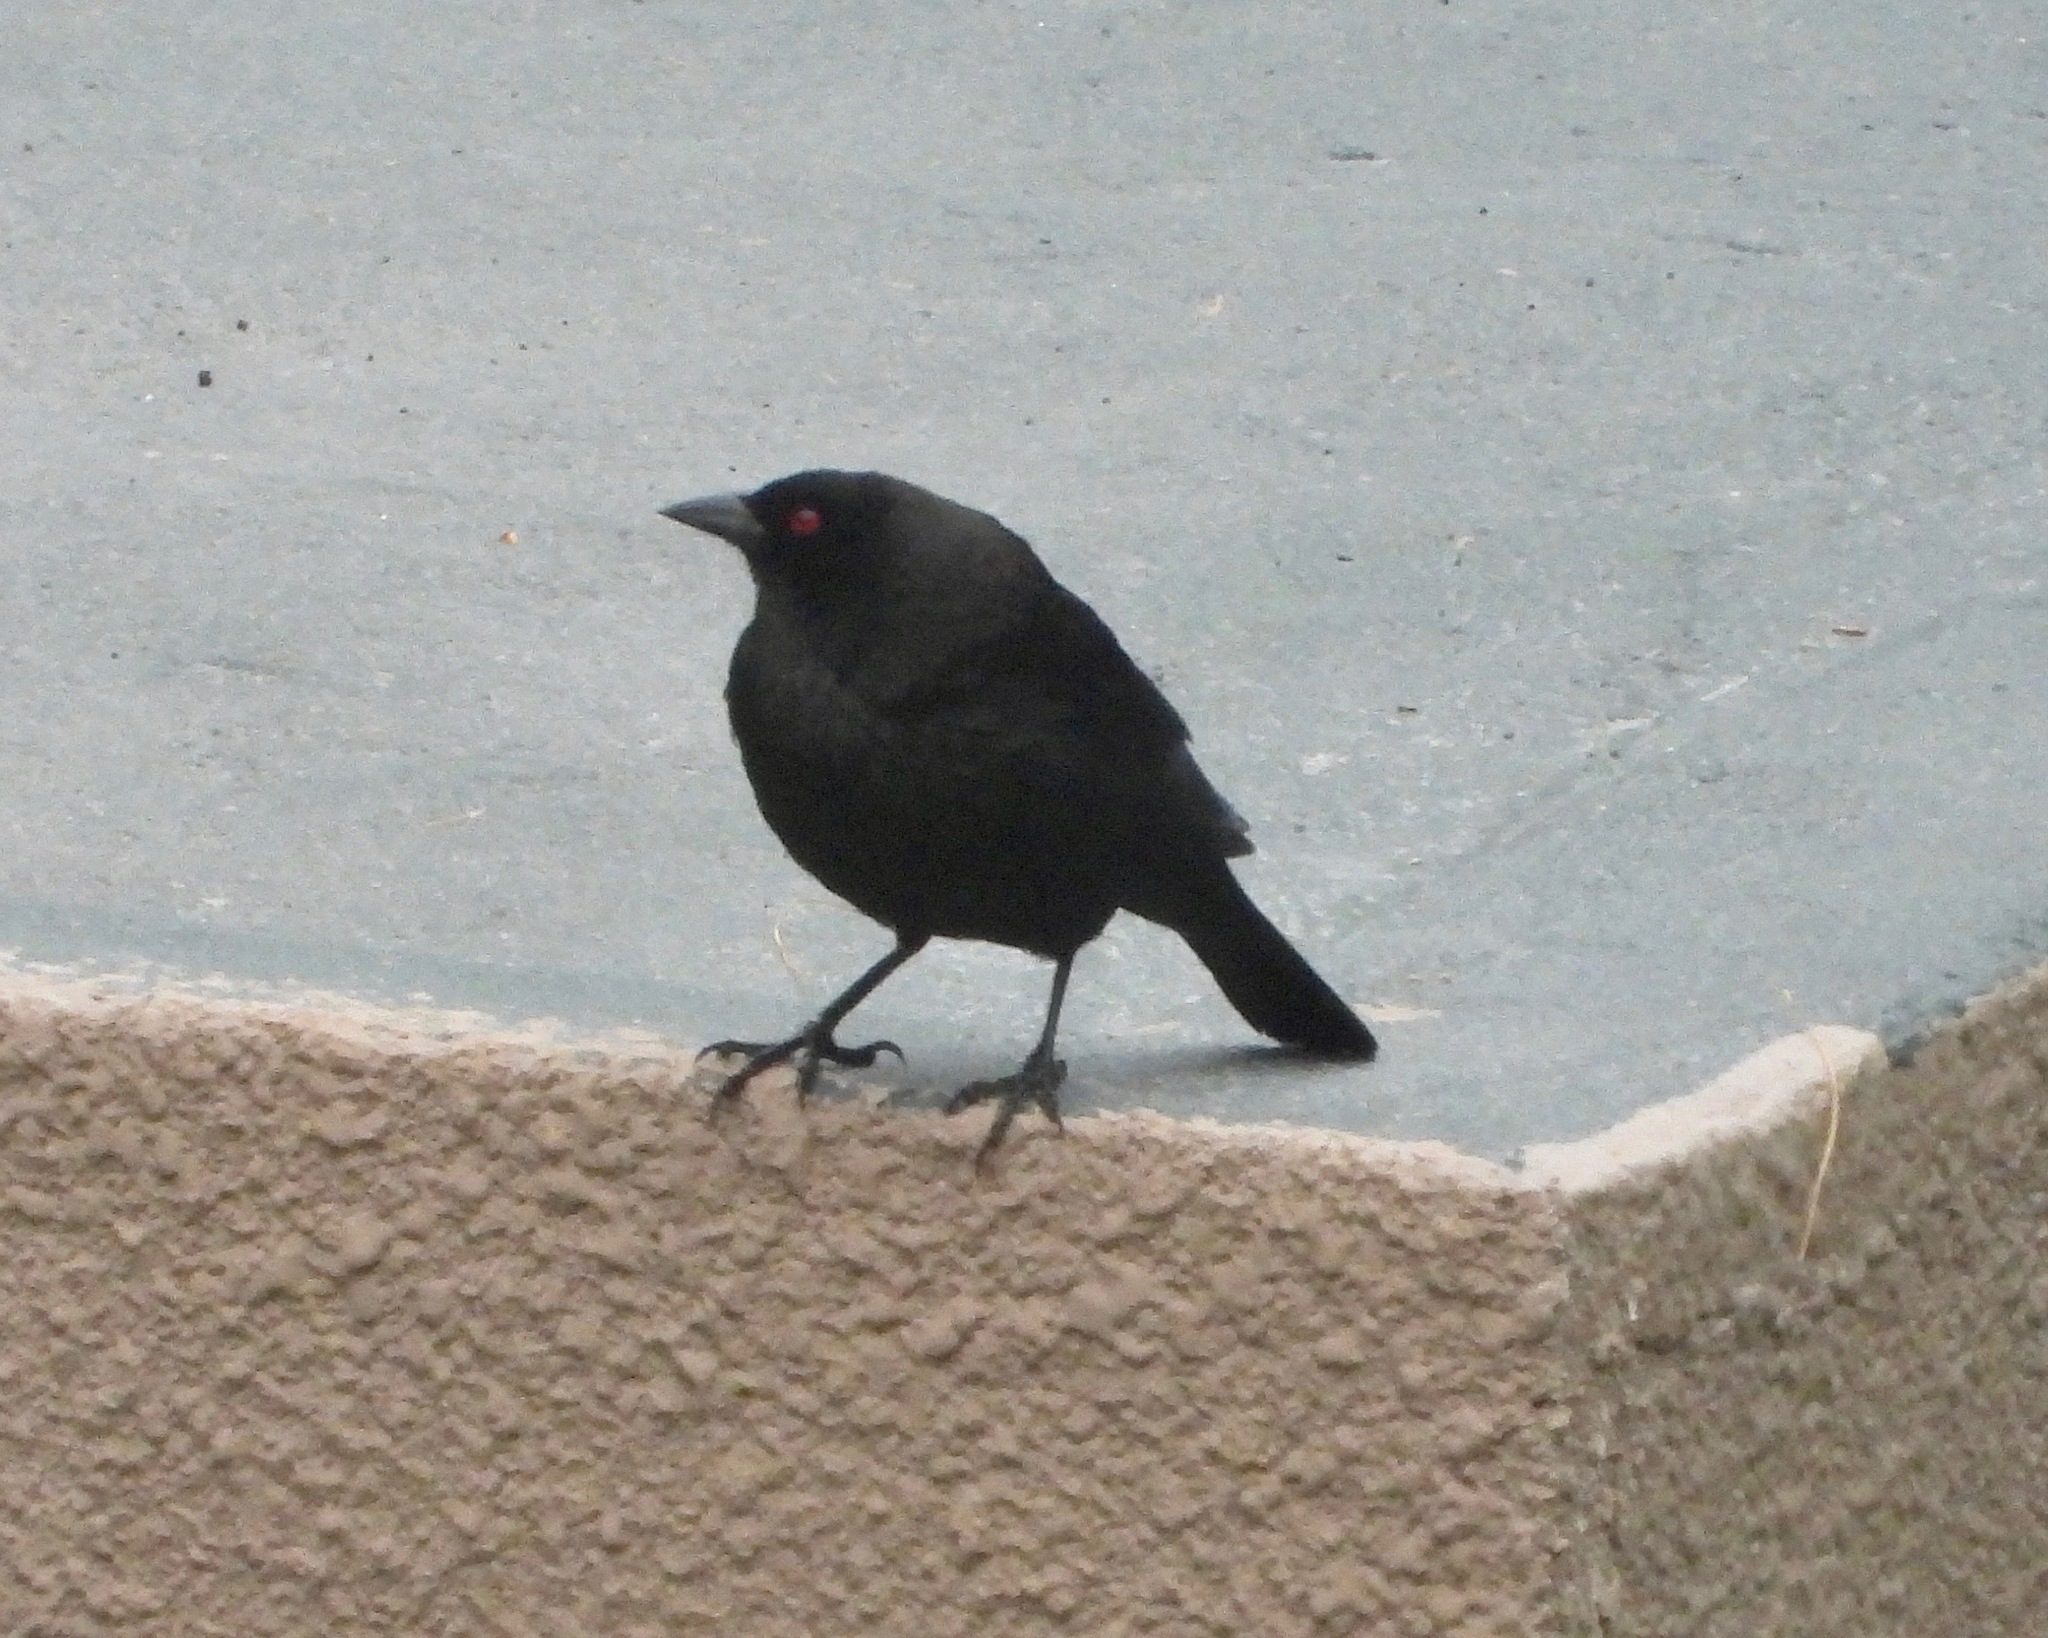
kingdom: Animalia
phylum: Chordata
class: Aves
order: Passeriformes
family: Icteridae
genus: Molothrus
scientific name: Molothrus aeneus
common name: Bronzed cowbird
